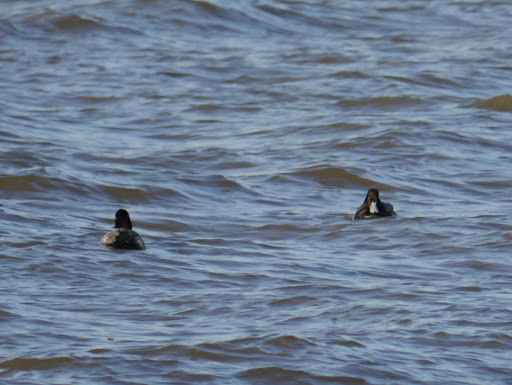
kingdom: Animalia
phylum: Chordata
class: Aves
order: Anseriformes
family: Anatidae
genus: Aythya
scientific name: Aythya affinis
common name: Lesser scaup
